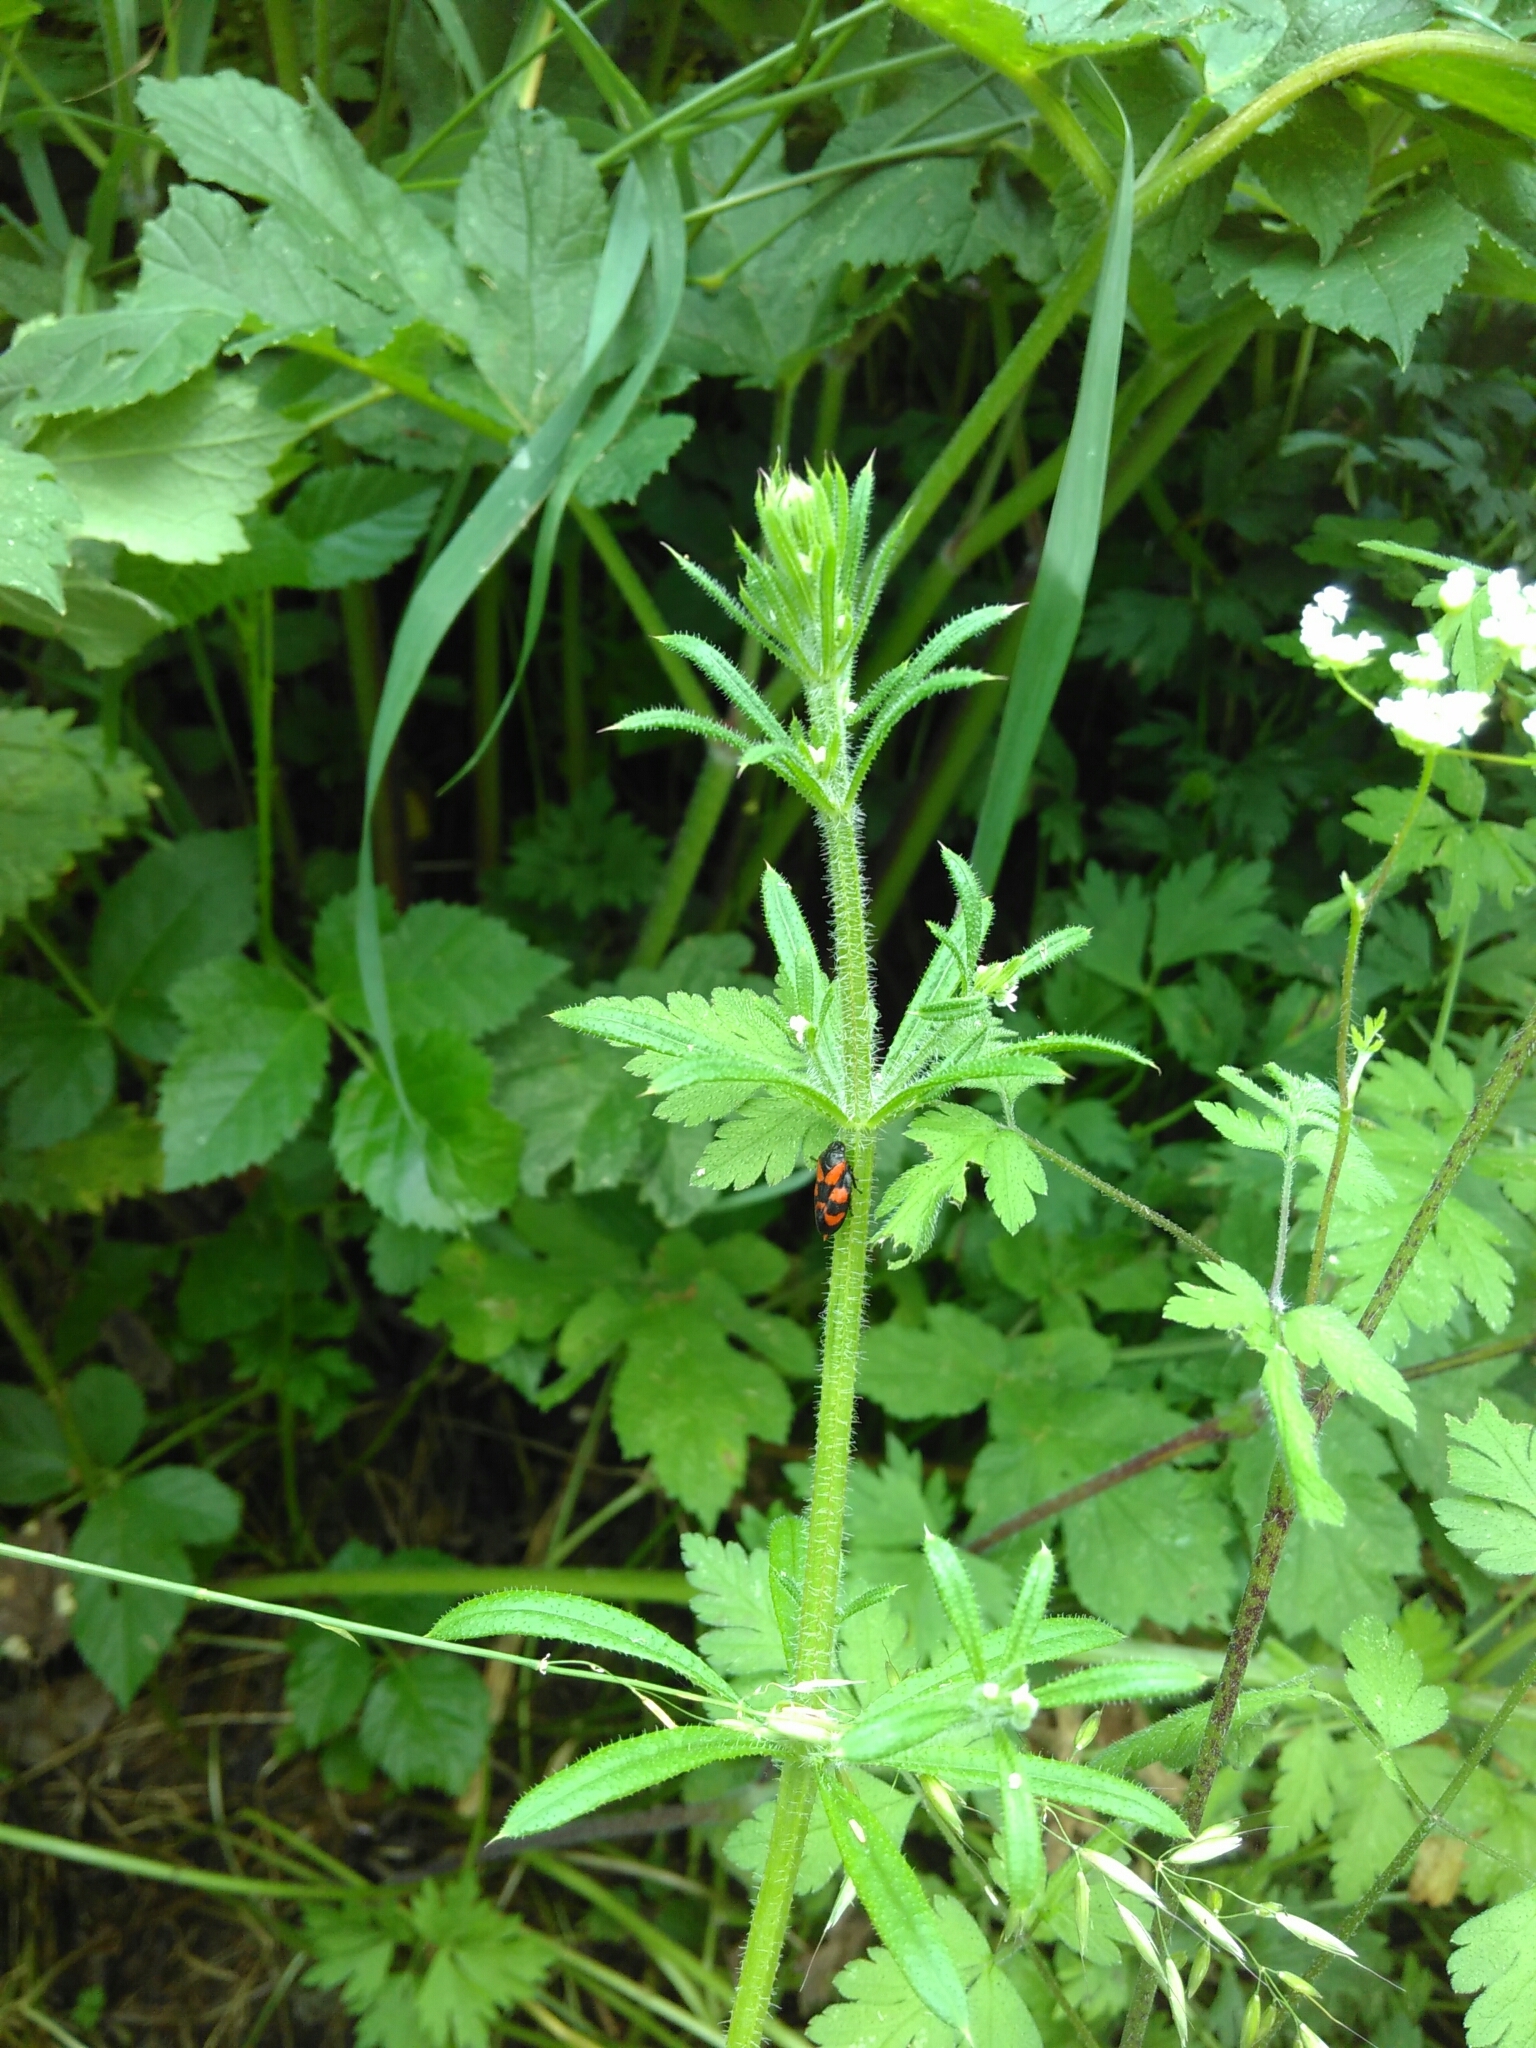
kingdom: Animalia
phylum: Arthropoda
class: Insecta
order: Hemiptera
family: Cercopidae
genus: Cercopis
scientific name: Cercopis vulnerata
